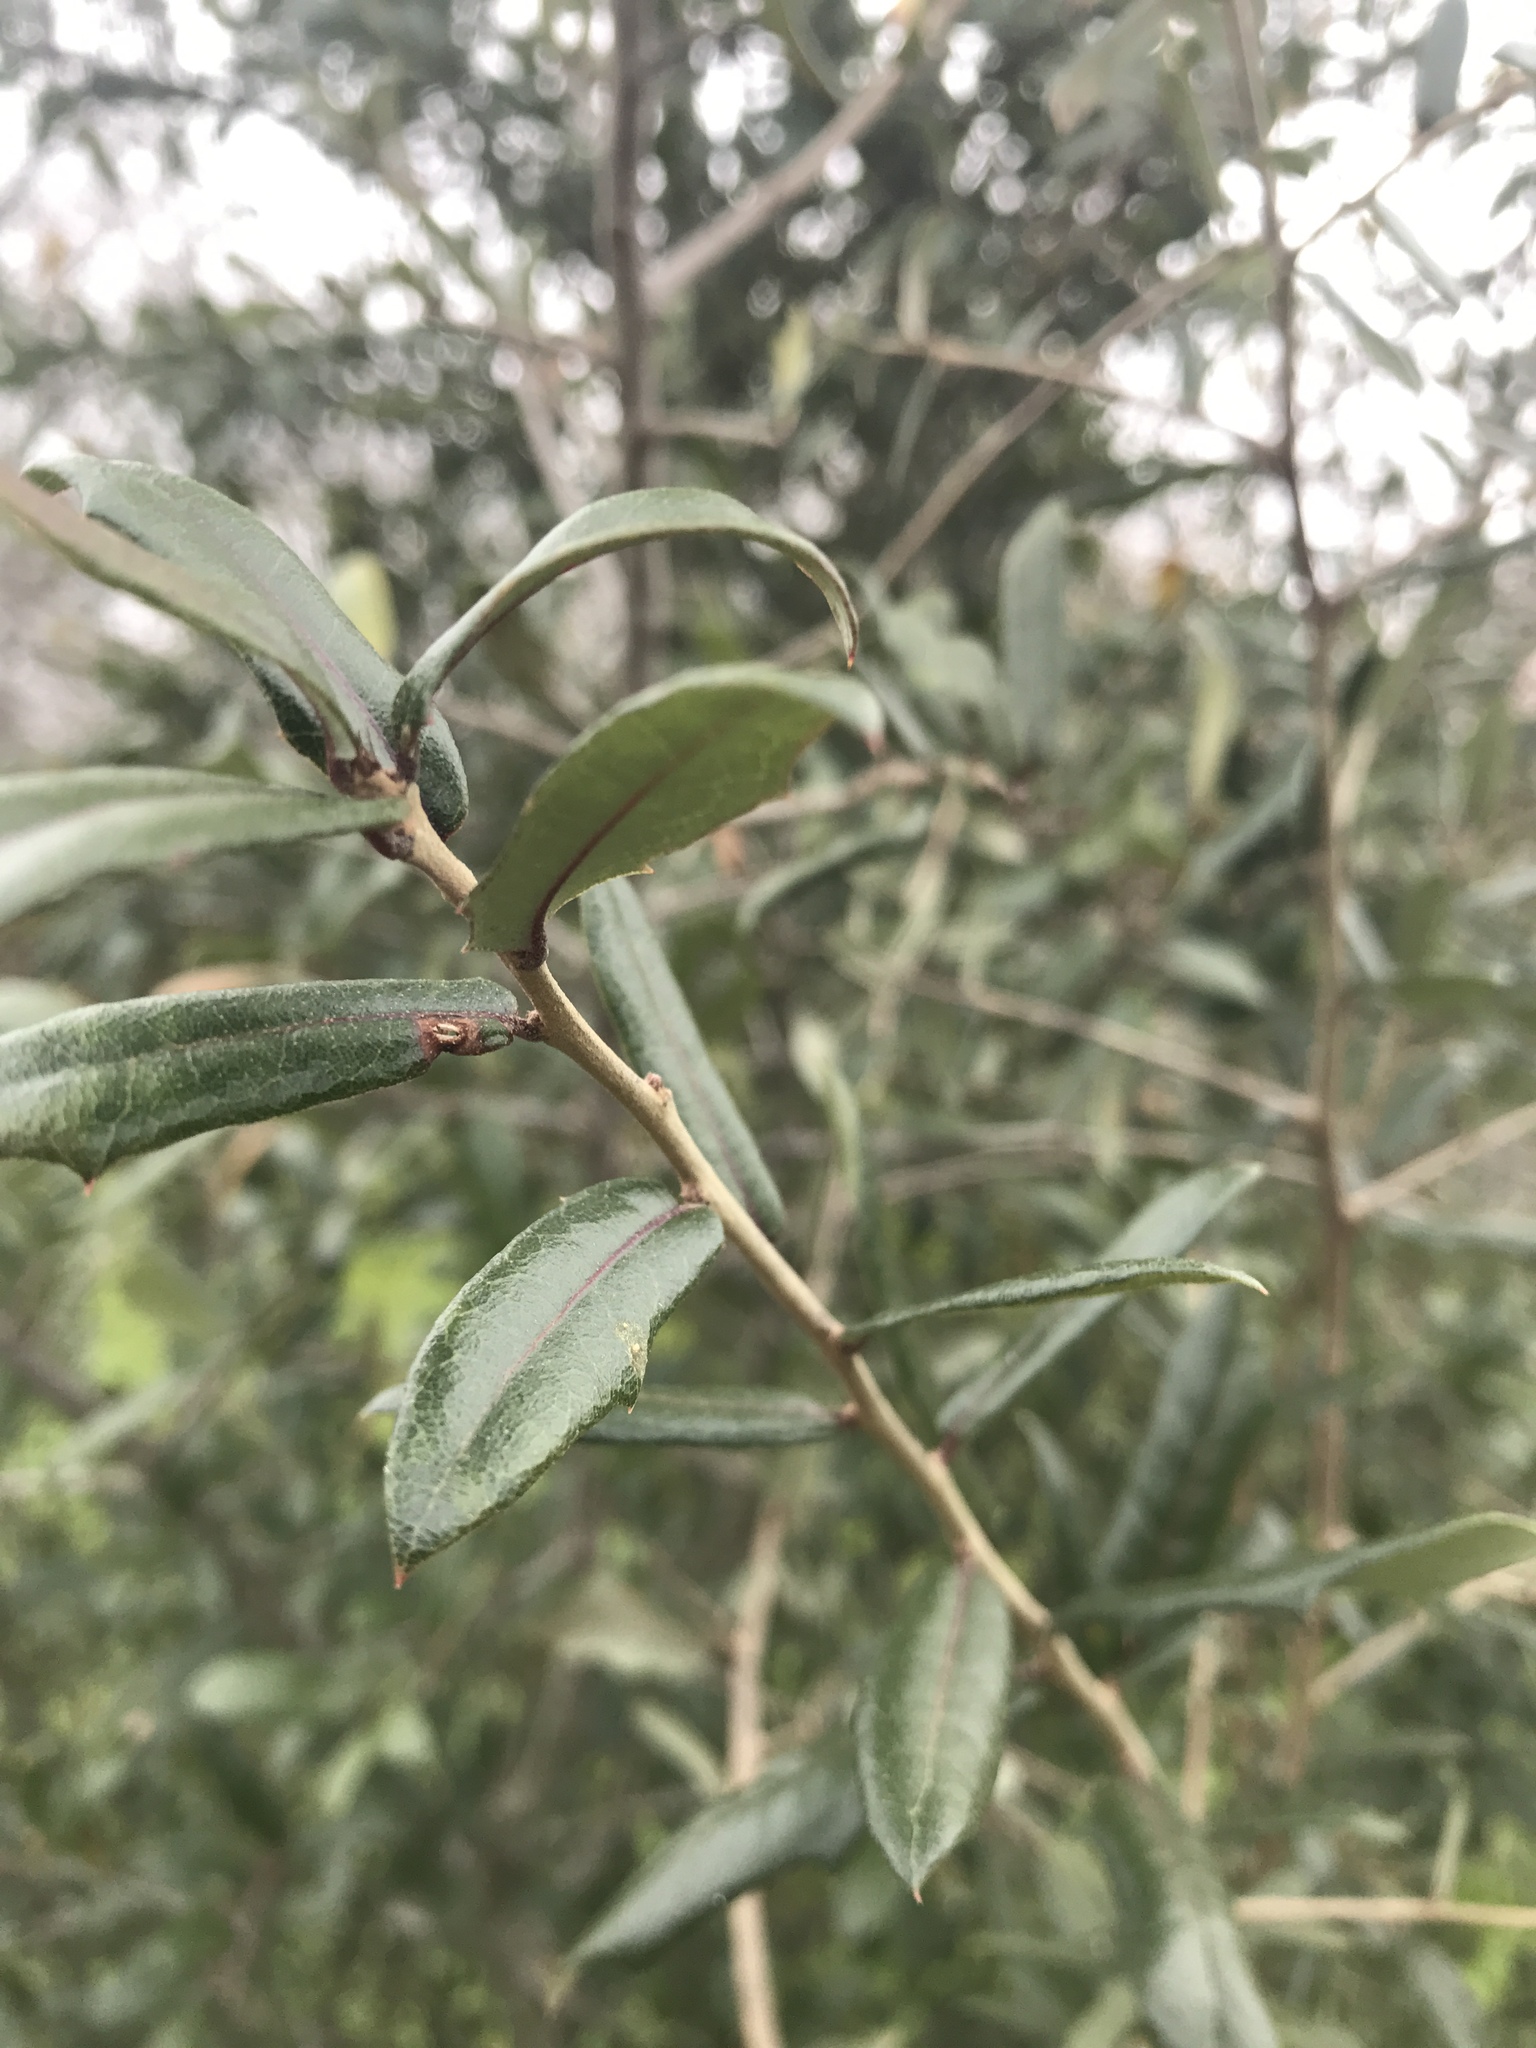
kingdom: Plantae
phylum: Tracheophyta
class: Magnoliopsida
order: Fagales
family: Fagaceae
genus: Quercus
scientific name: Quercus fusiformis
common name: Texas live oak
